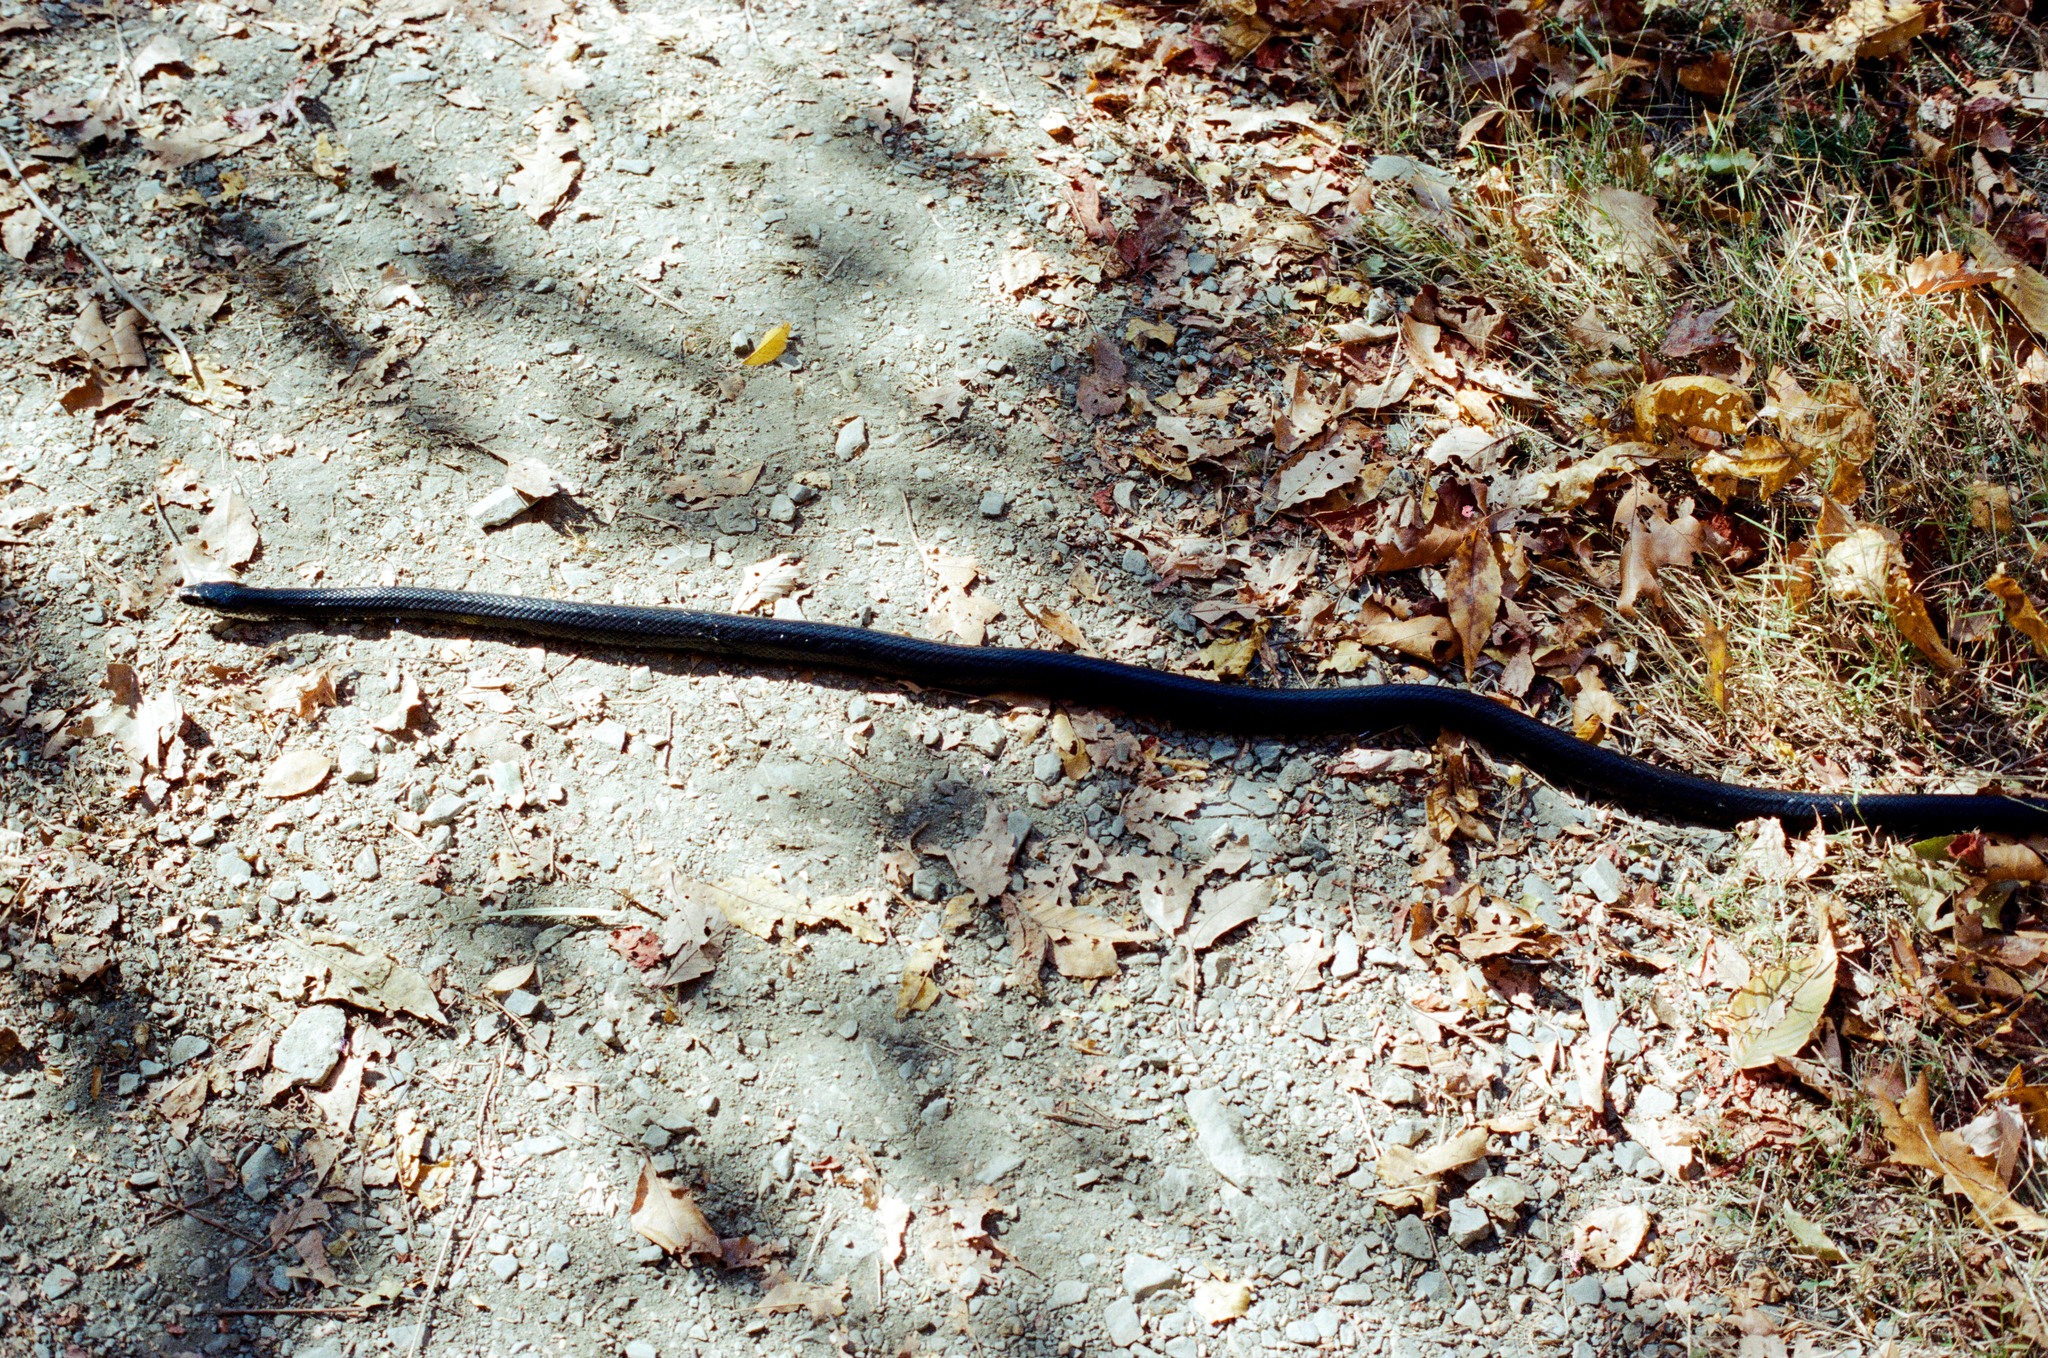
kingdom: Animalia
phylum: Chordata
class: Squamata
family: Colubridae
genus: Pantherophis
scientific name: Pantherophis
